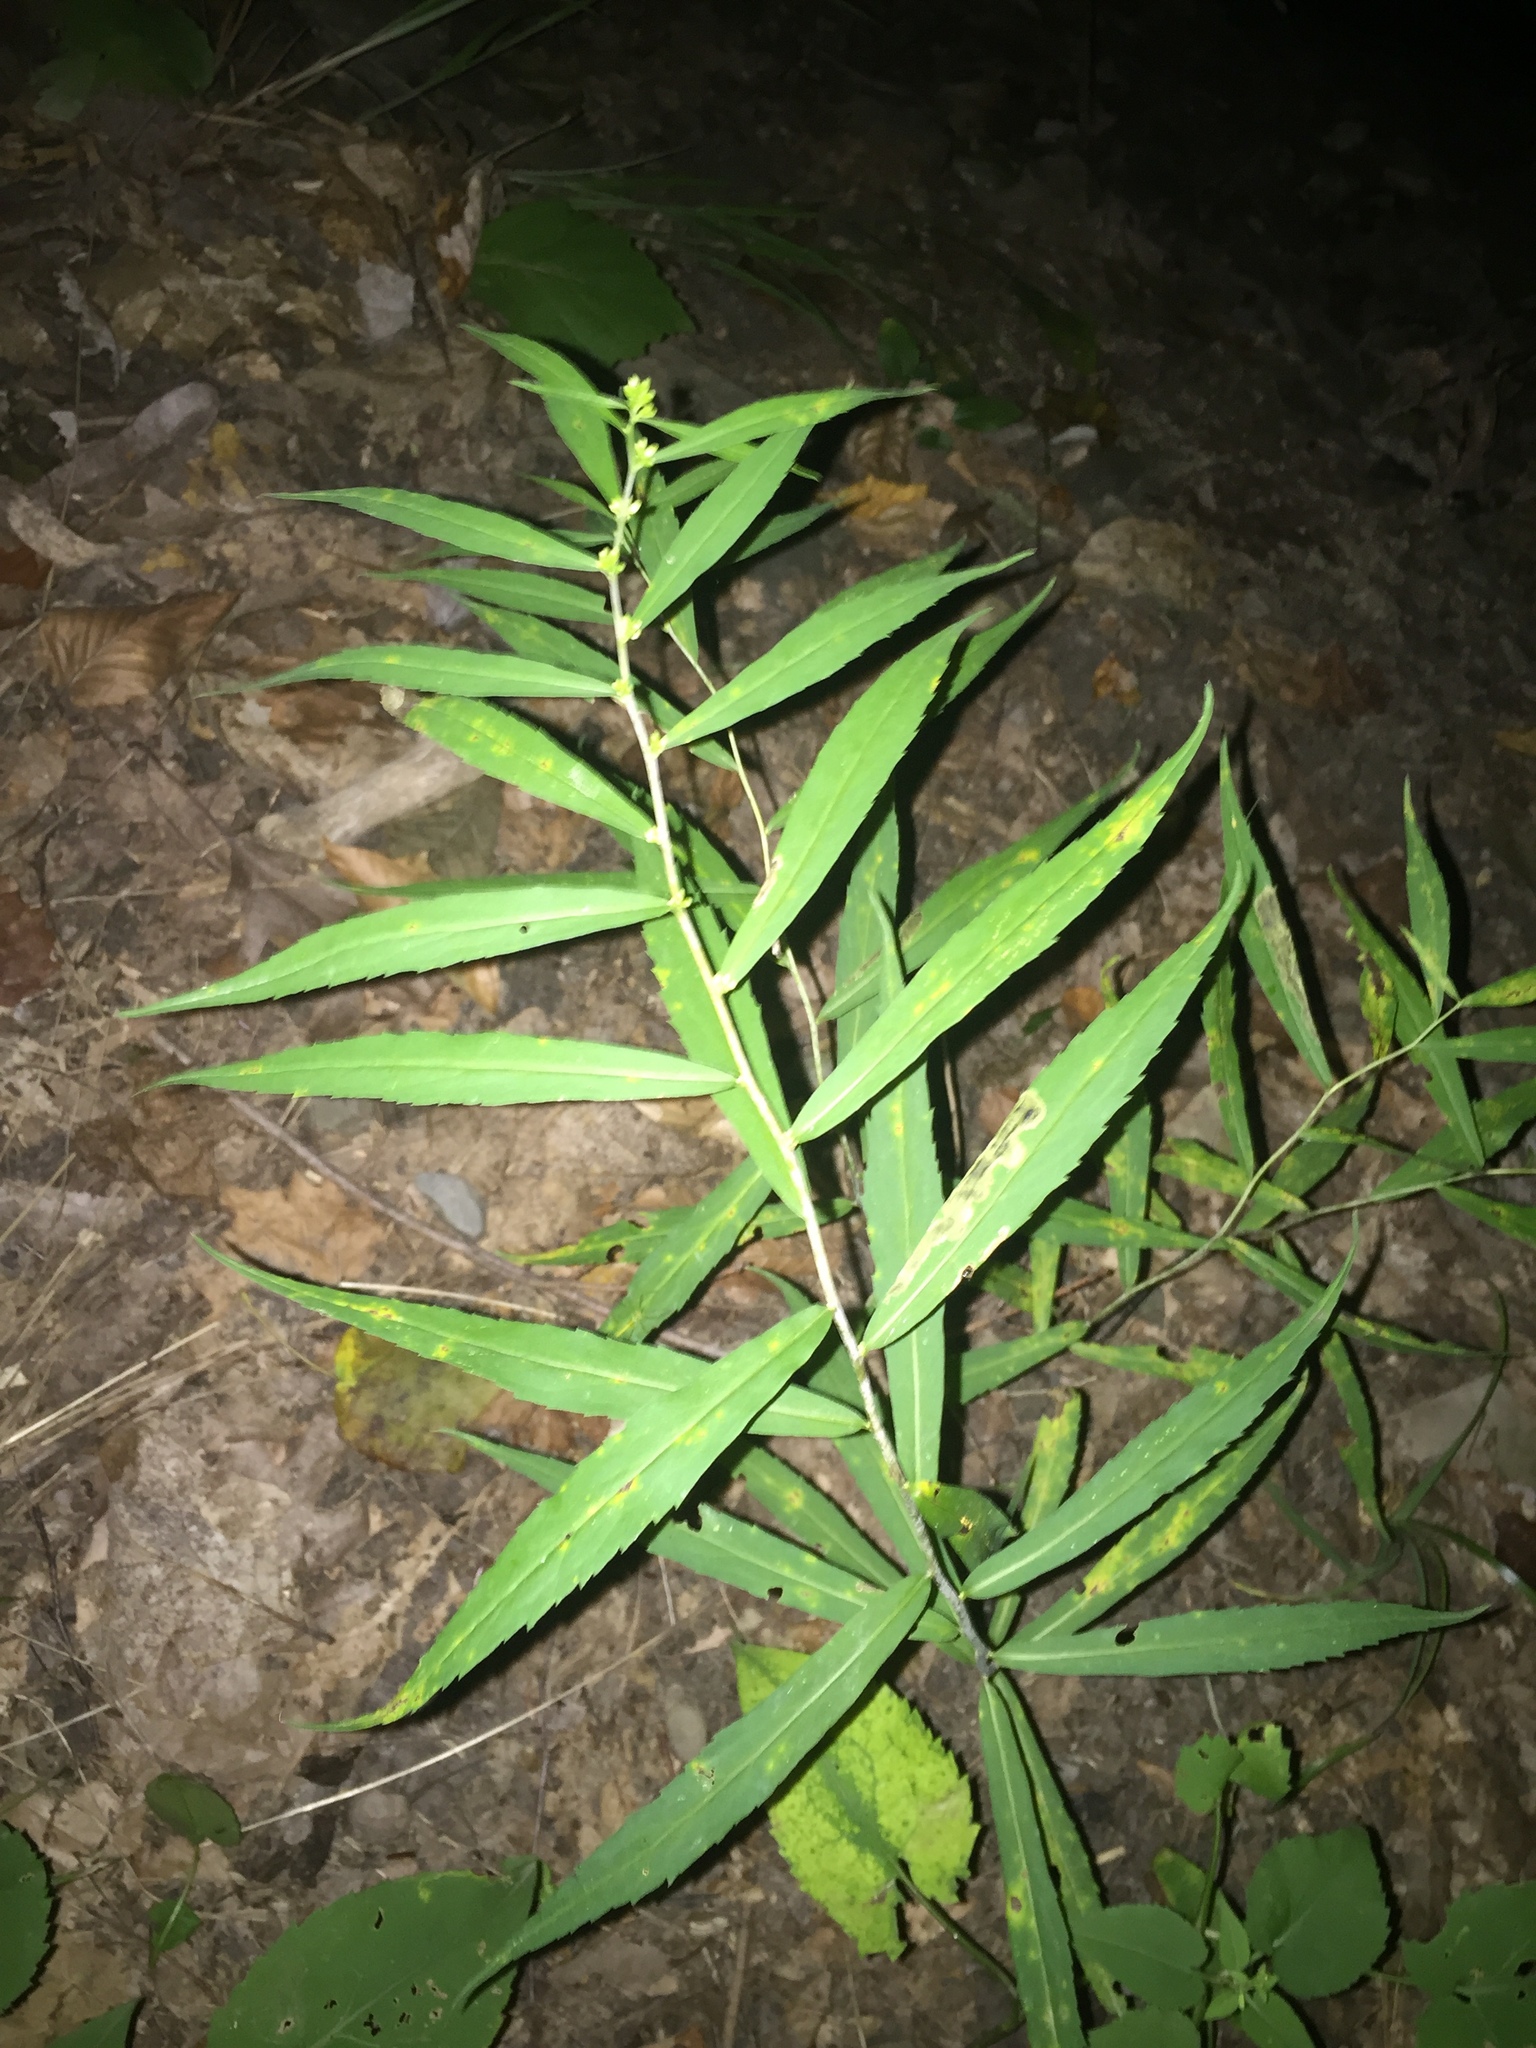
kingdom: Plantae
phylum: Tracheophyta
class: Magnoliopsida
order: Asterales
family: Asteraceae
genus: Solidago
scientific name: Solidago caesia
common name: Woodland goldenrod
